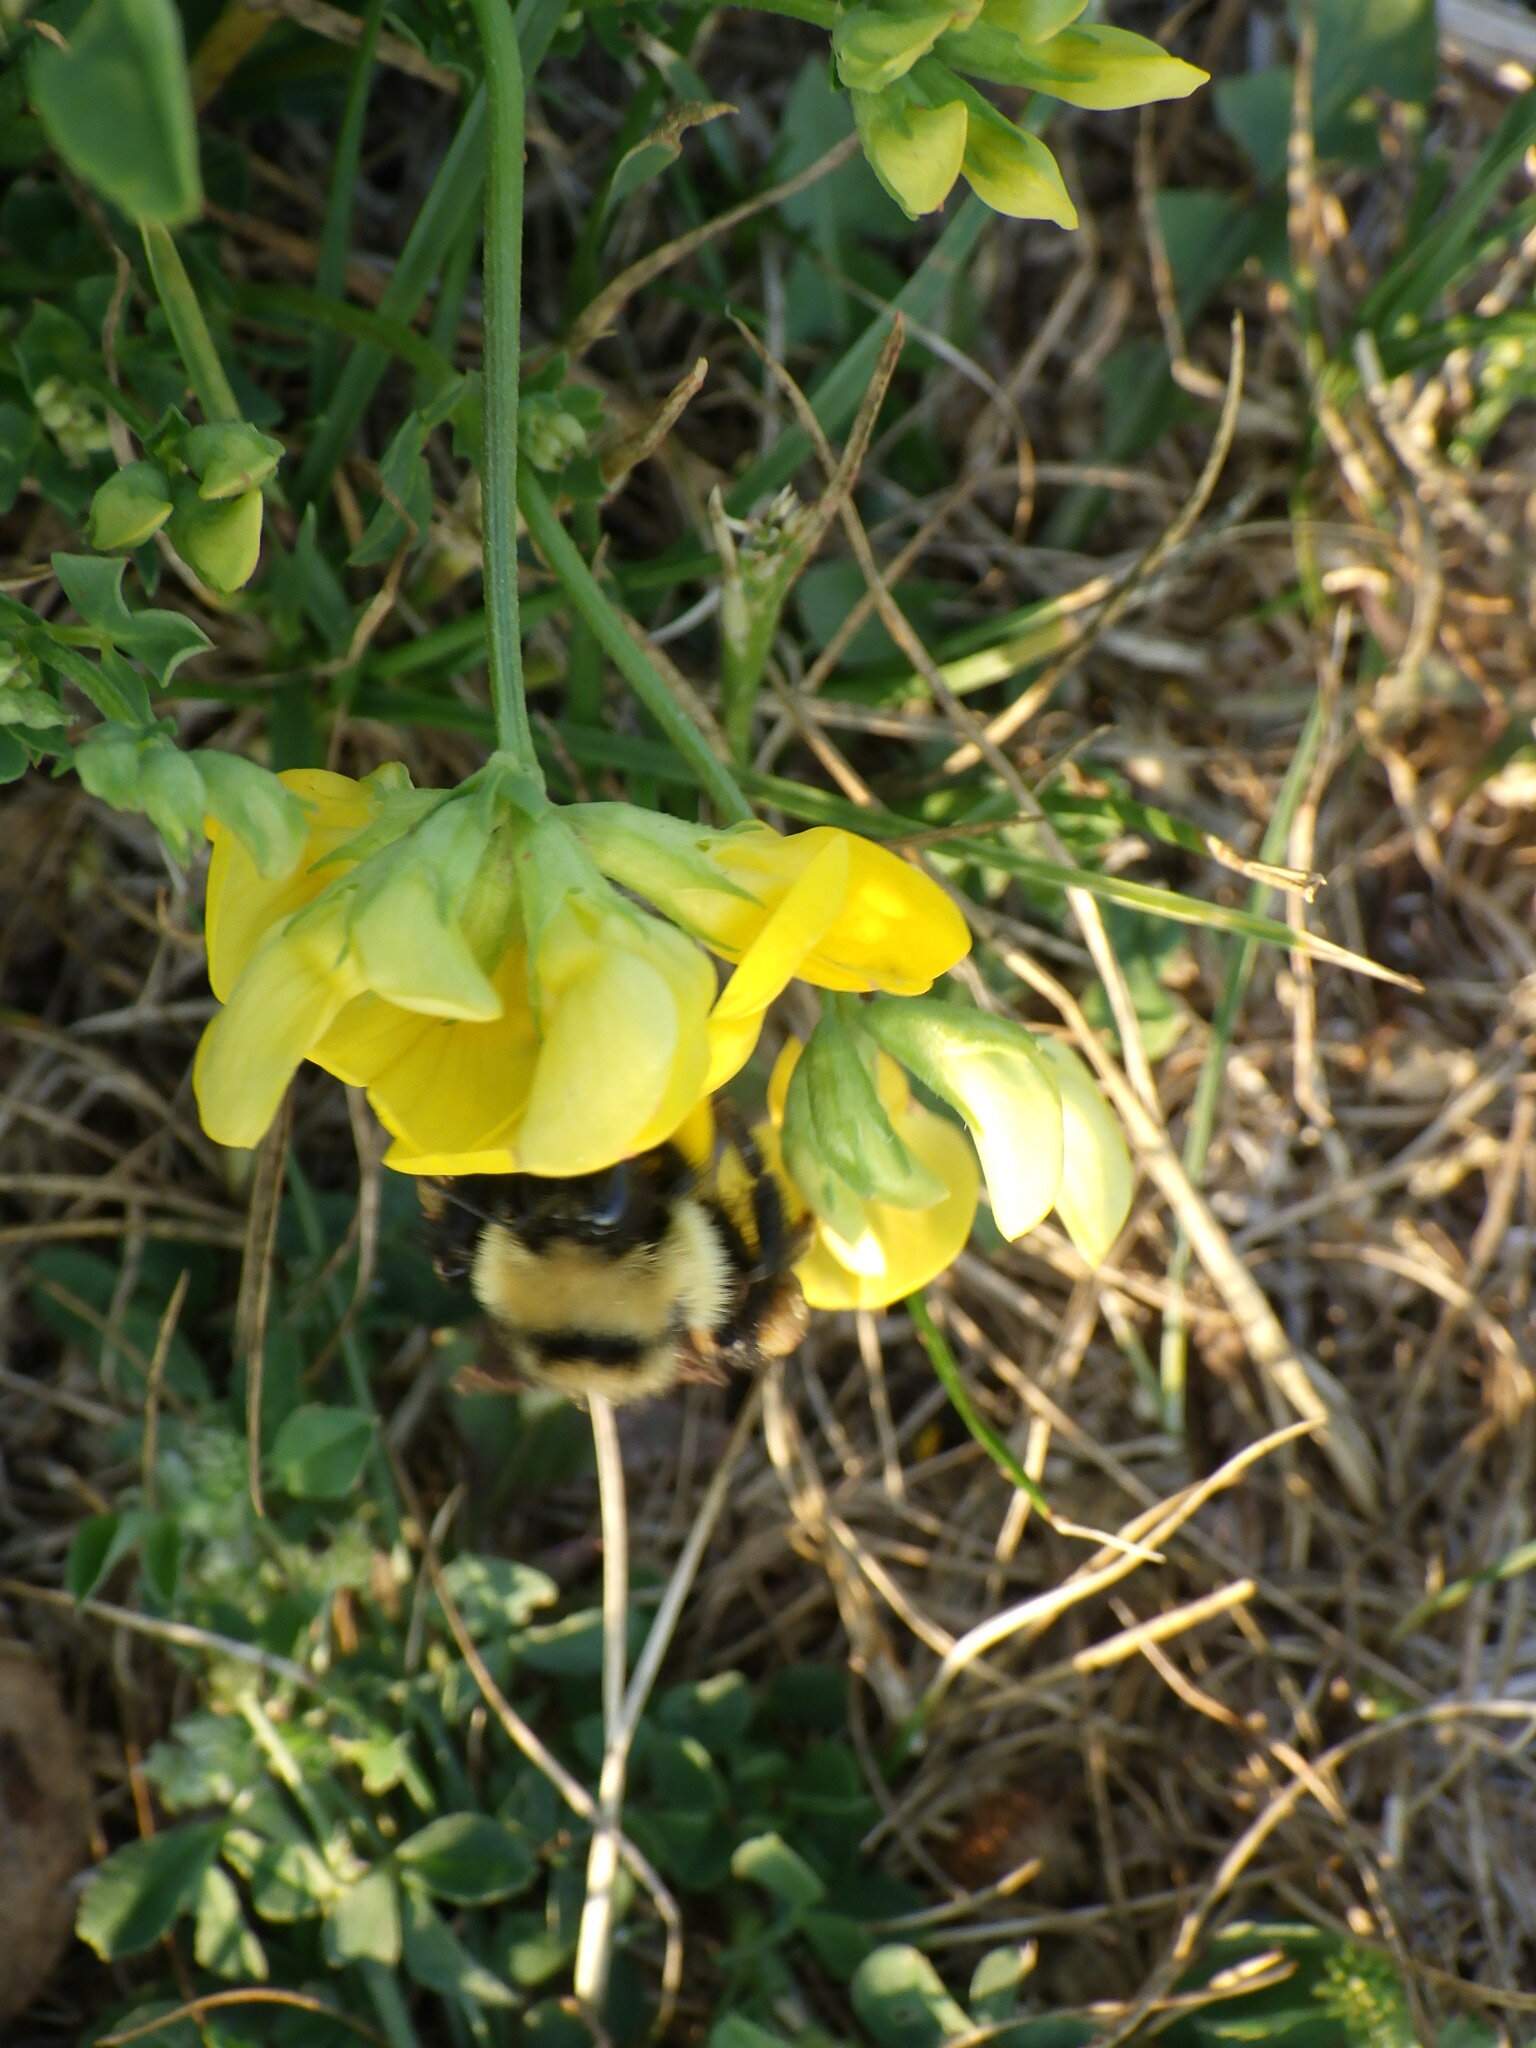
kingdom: Animalia
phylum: Arthropoda
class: Insecta
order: Hymenoptera
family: Apidae
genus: Bombus
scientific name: Bombus
